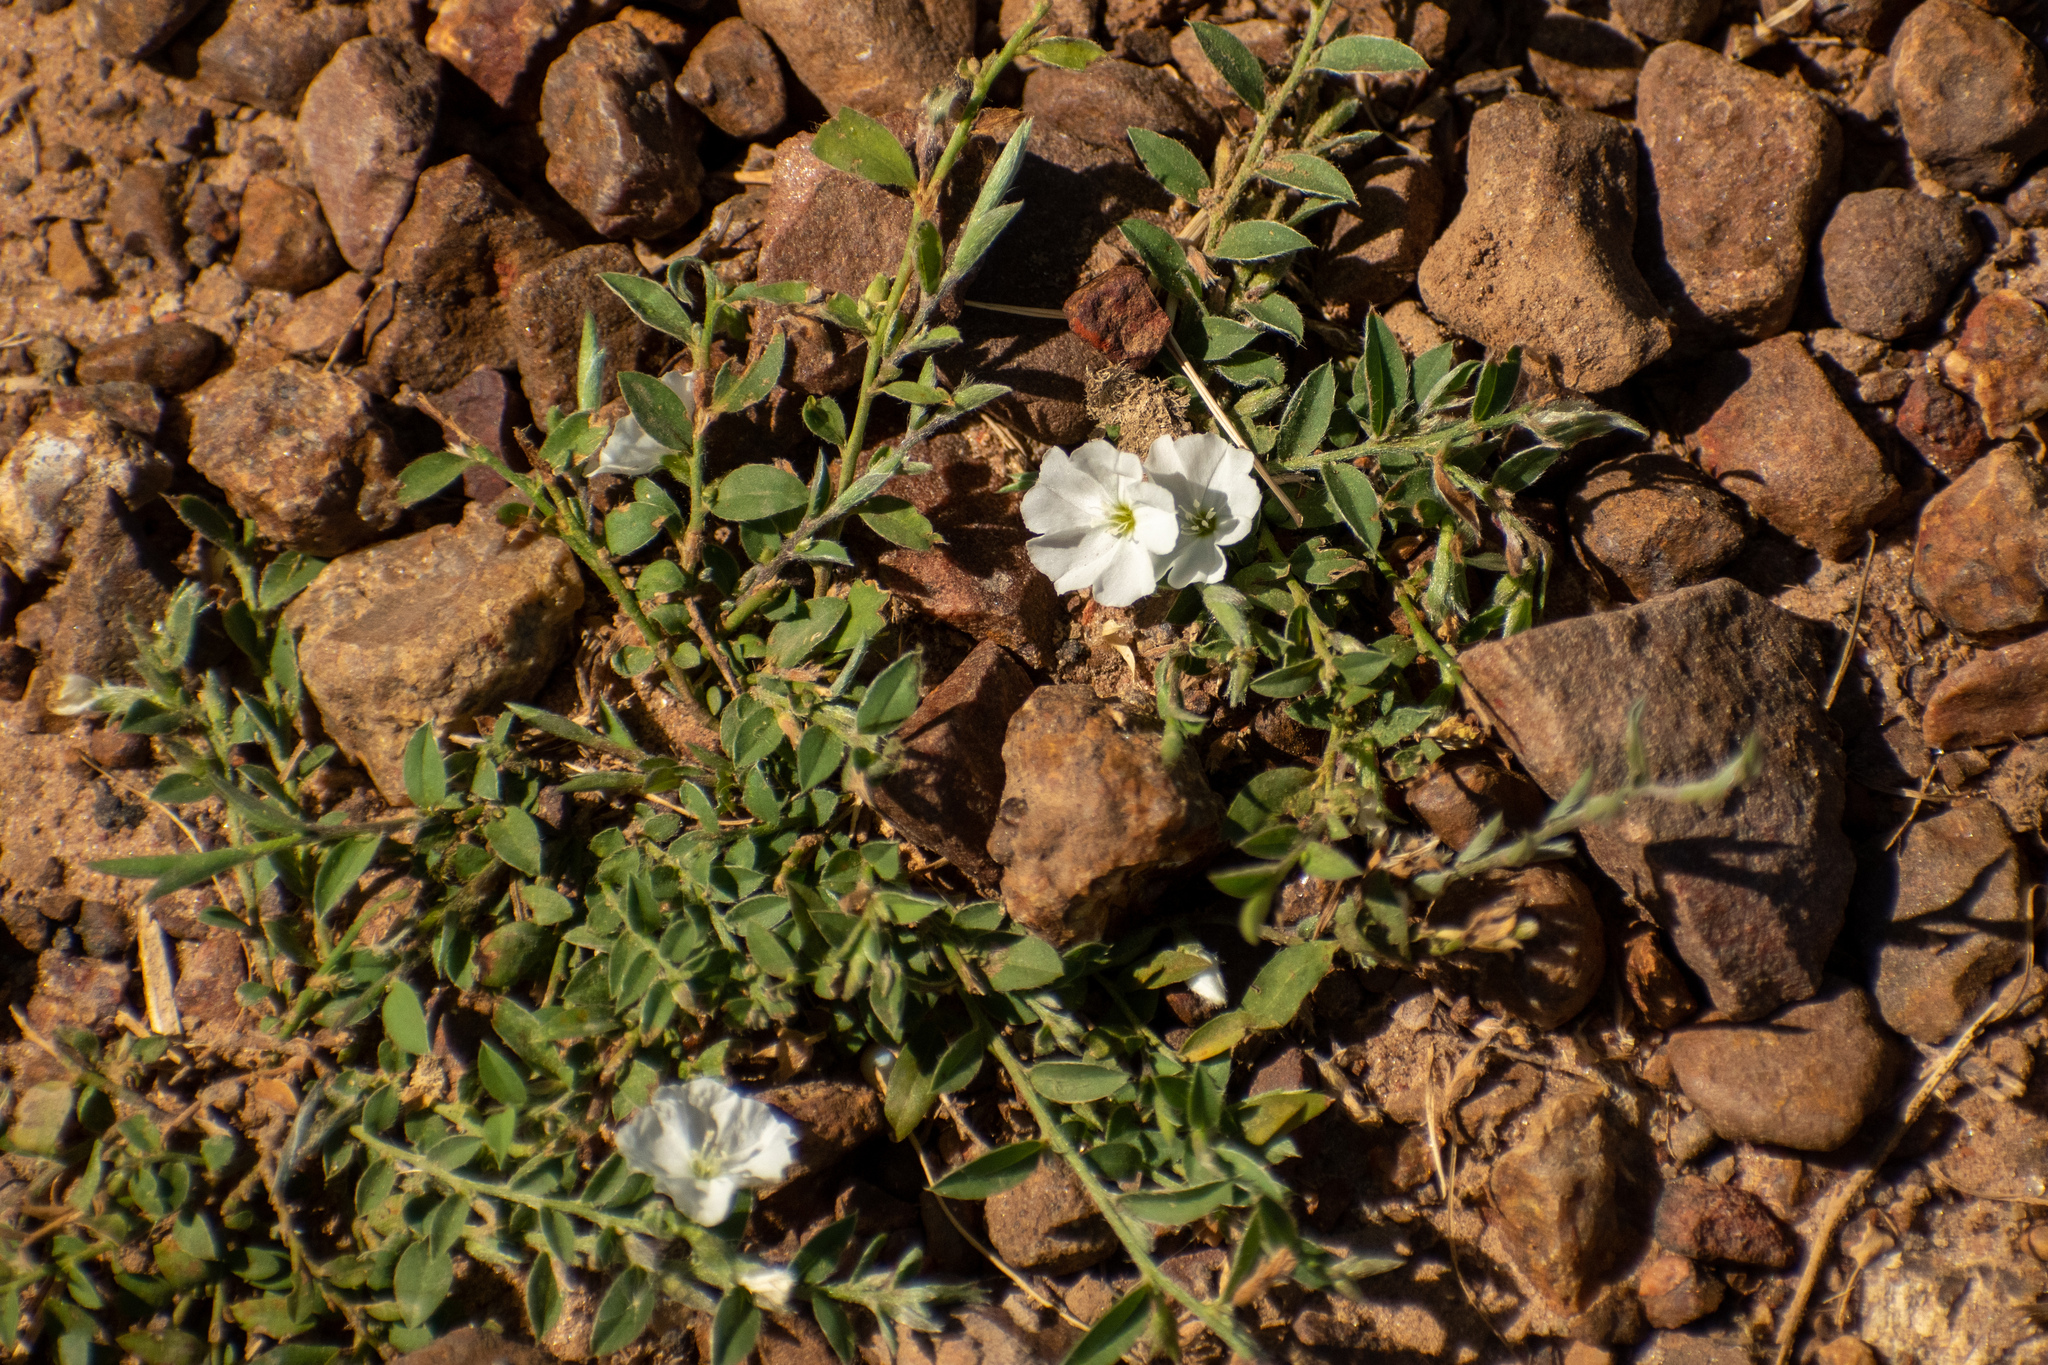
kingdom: Plantae
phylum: Tracheophyta
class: Magnoliopsida
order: Solanales
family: Convolvulaceae
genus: Evolvulus
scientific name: Evolvulus sericeus
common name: Blue dots
